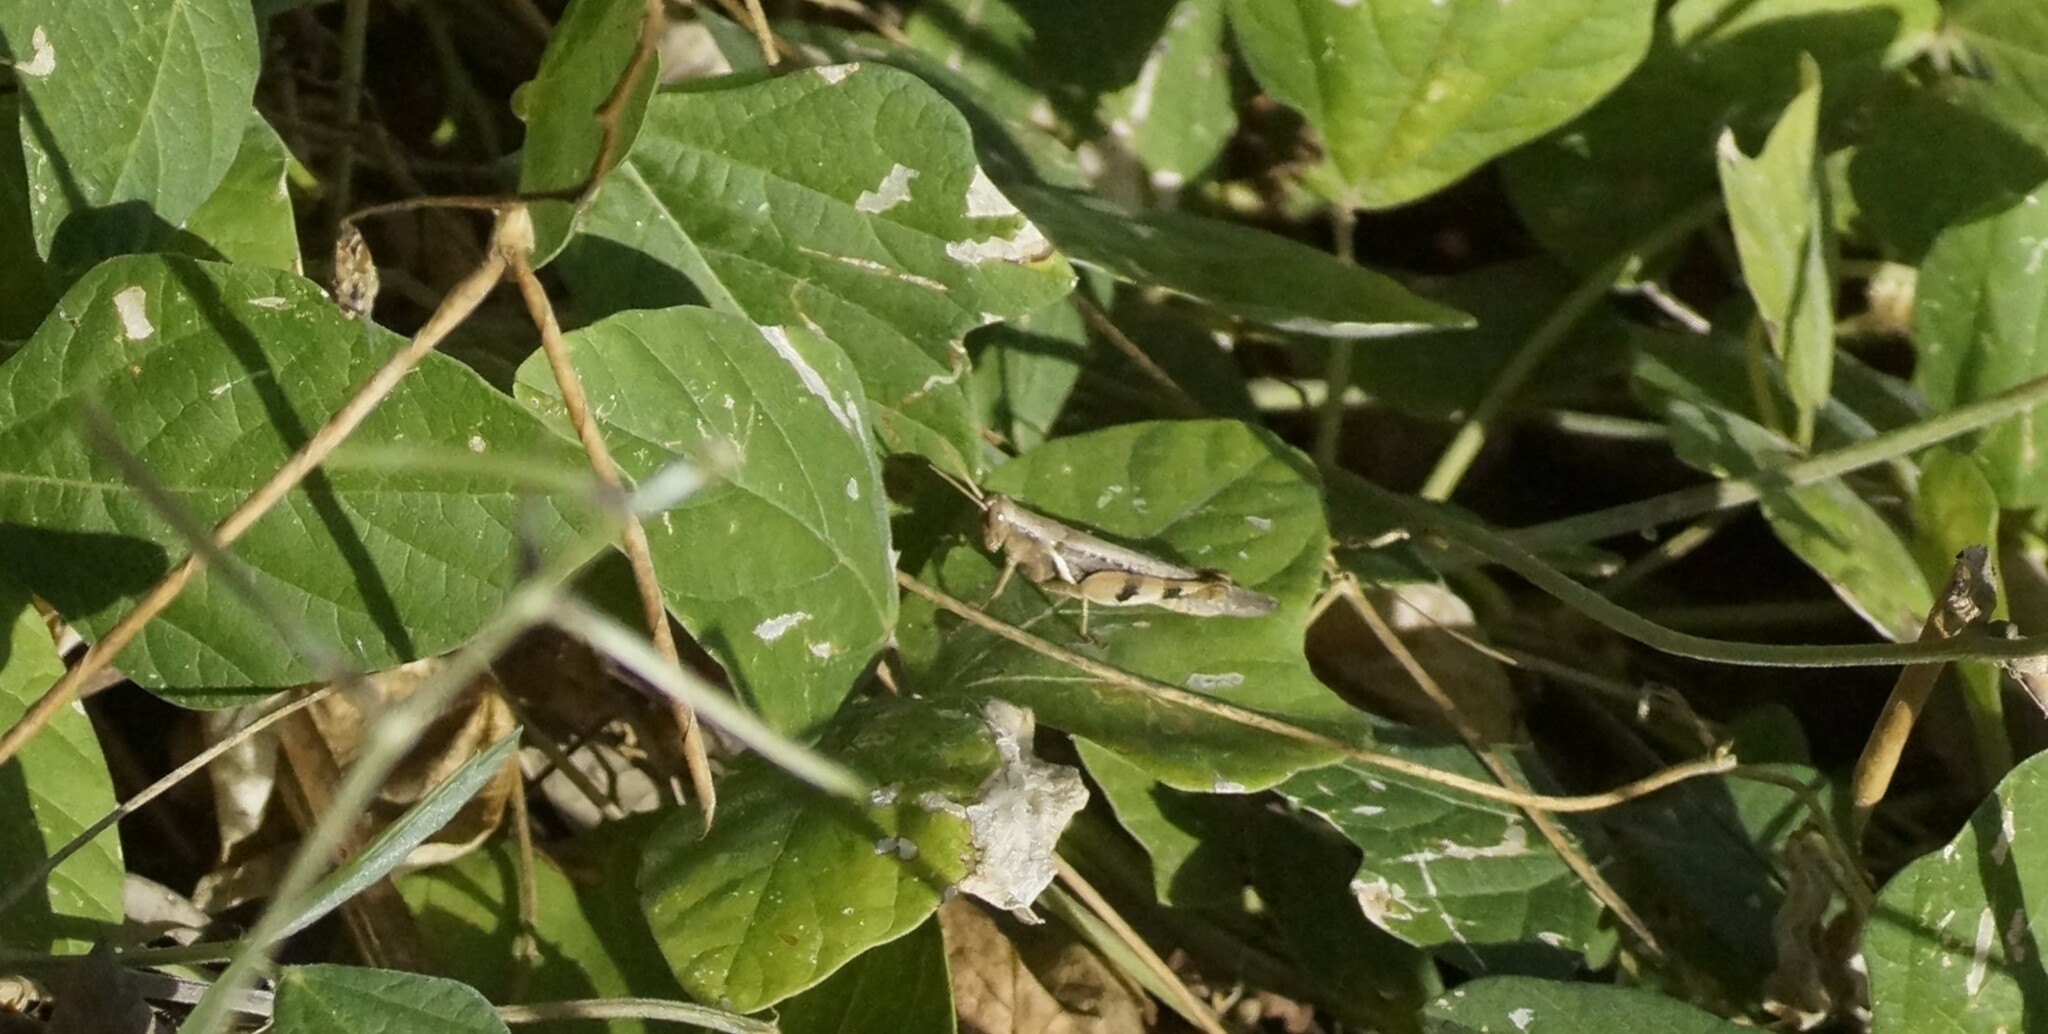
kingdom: Animalia
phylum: Arthropoda
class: Insecta
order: Orthoptera
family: Acrididae
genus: Stenocatantops
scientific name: Stenocatantops angustifrons
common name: Common tropical sharptail
